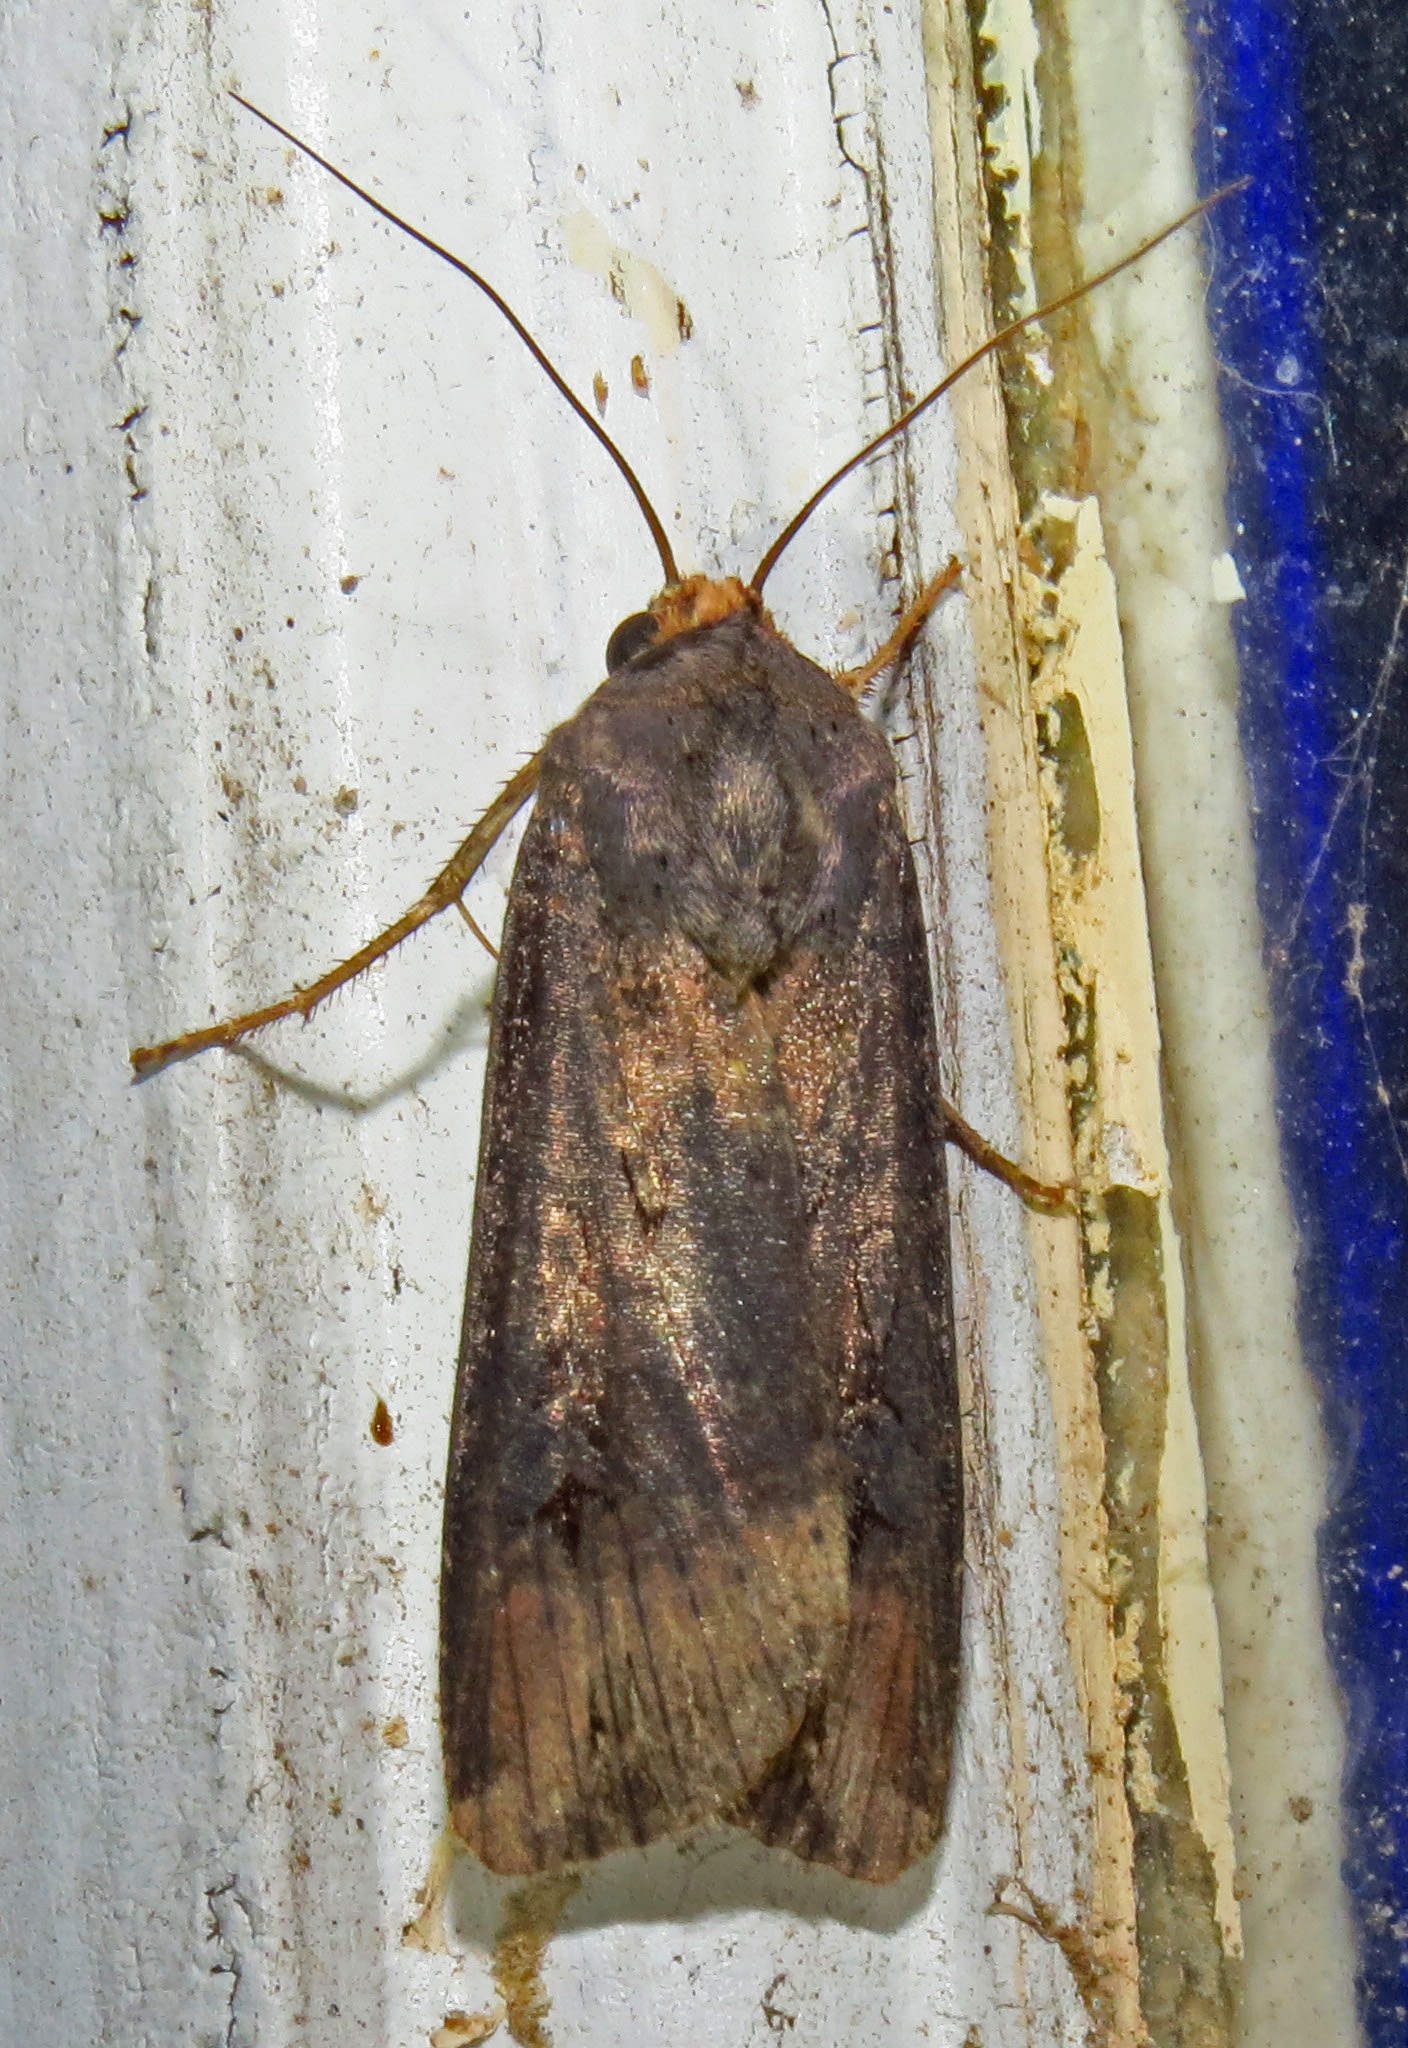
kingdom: Animalia
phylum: Arthropoda
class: Insecta
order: Lepidoptera
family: Noctuidae
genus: Agrotis
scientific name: Agrotis ipsilon
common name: Dark sword-grass
